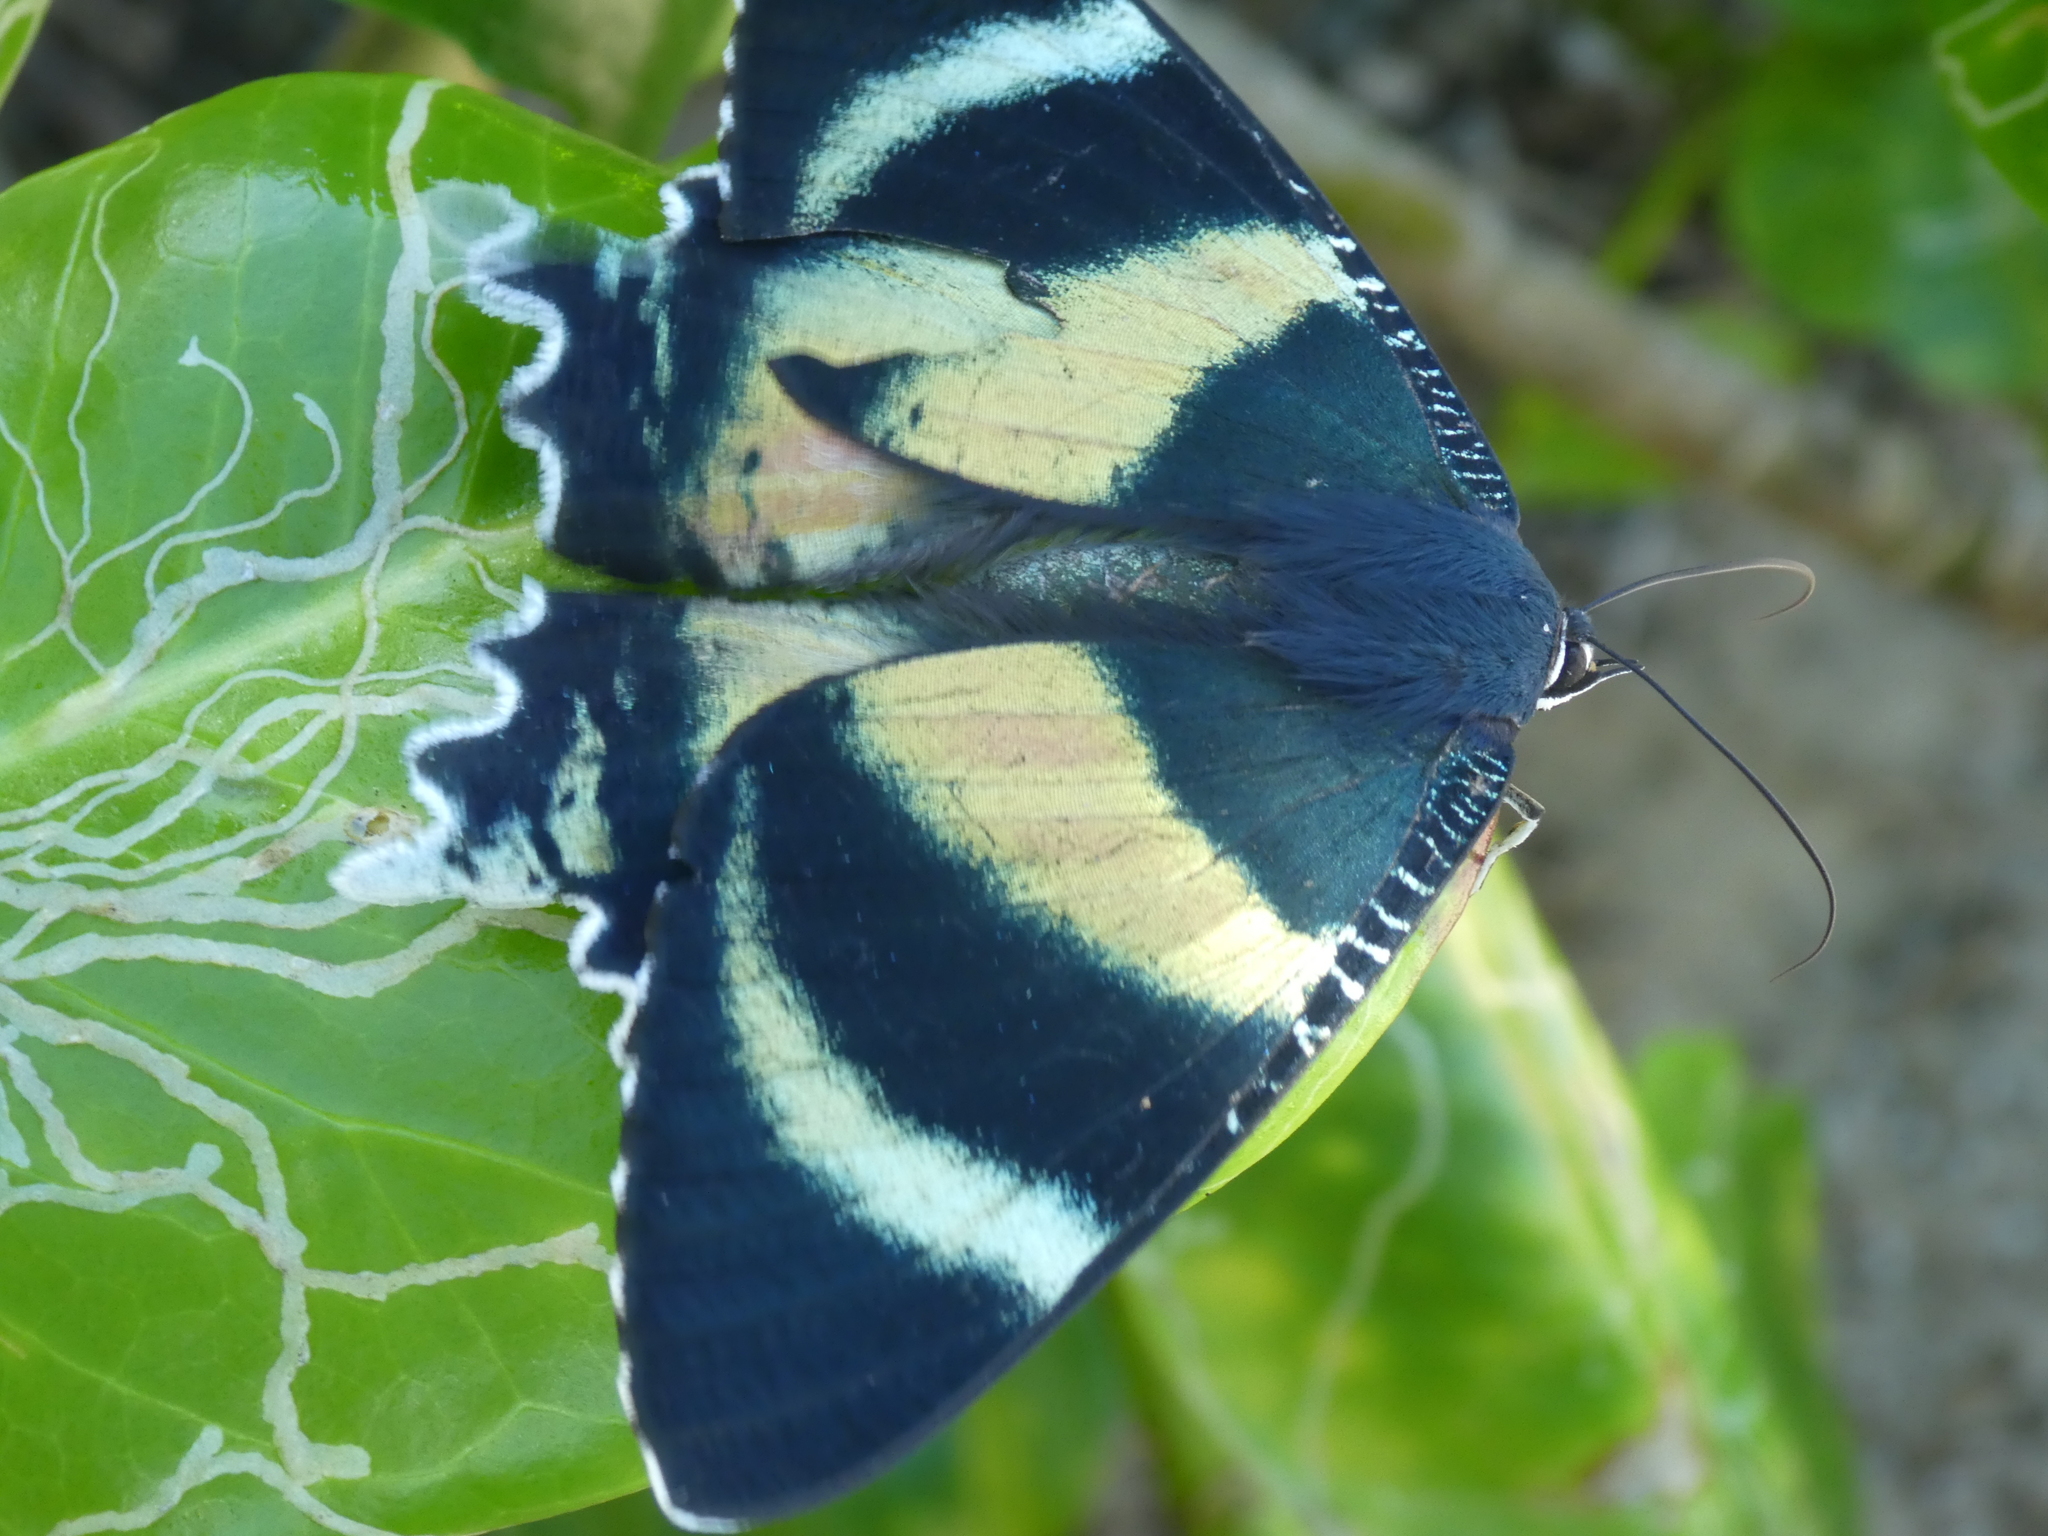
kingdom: Animalia
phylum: Arthropoda
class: Insecta
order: Lepidoptera
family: Uraniidae
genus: Alcides
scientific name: Alcides metaurus
